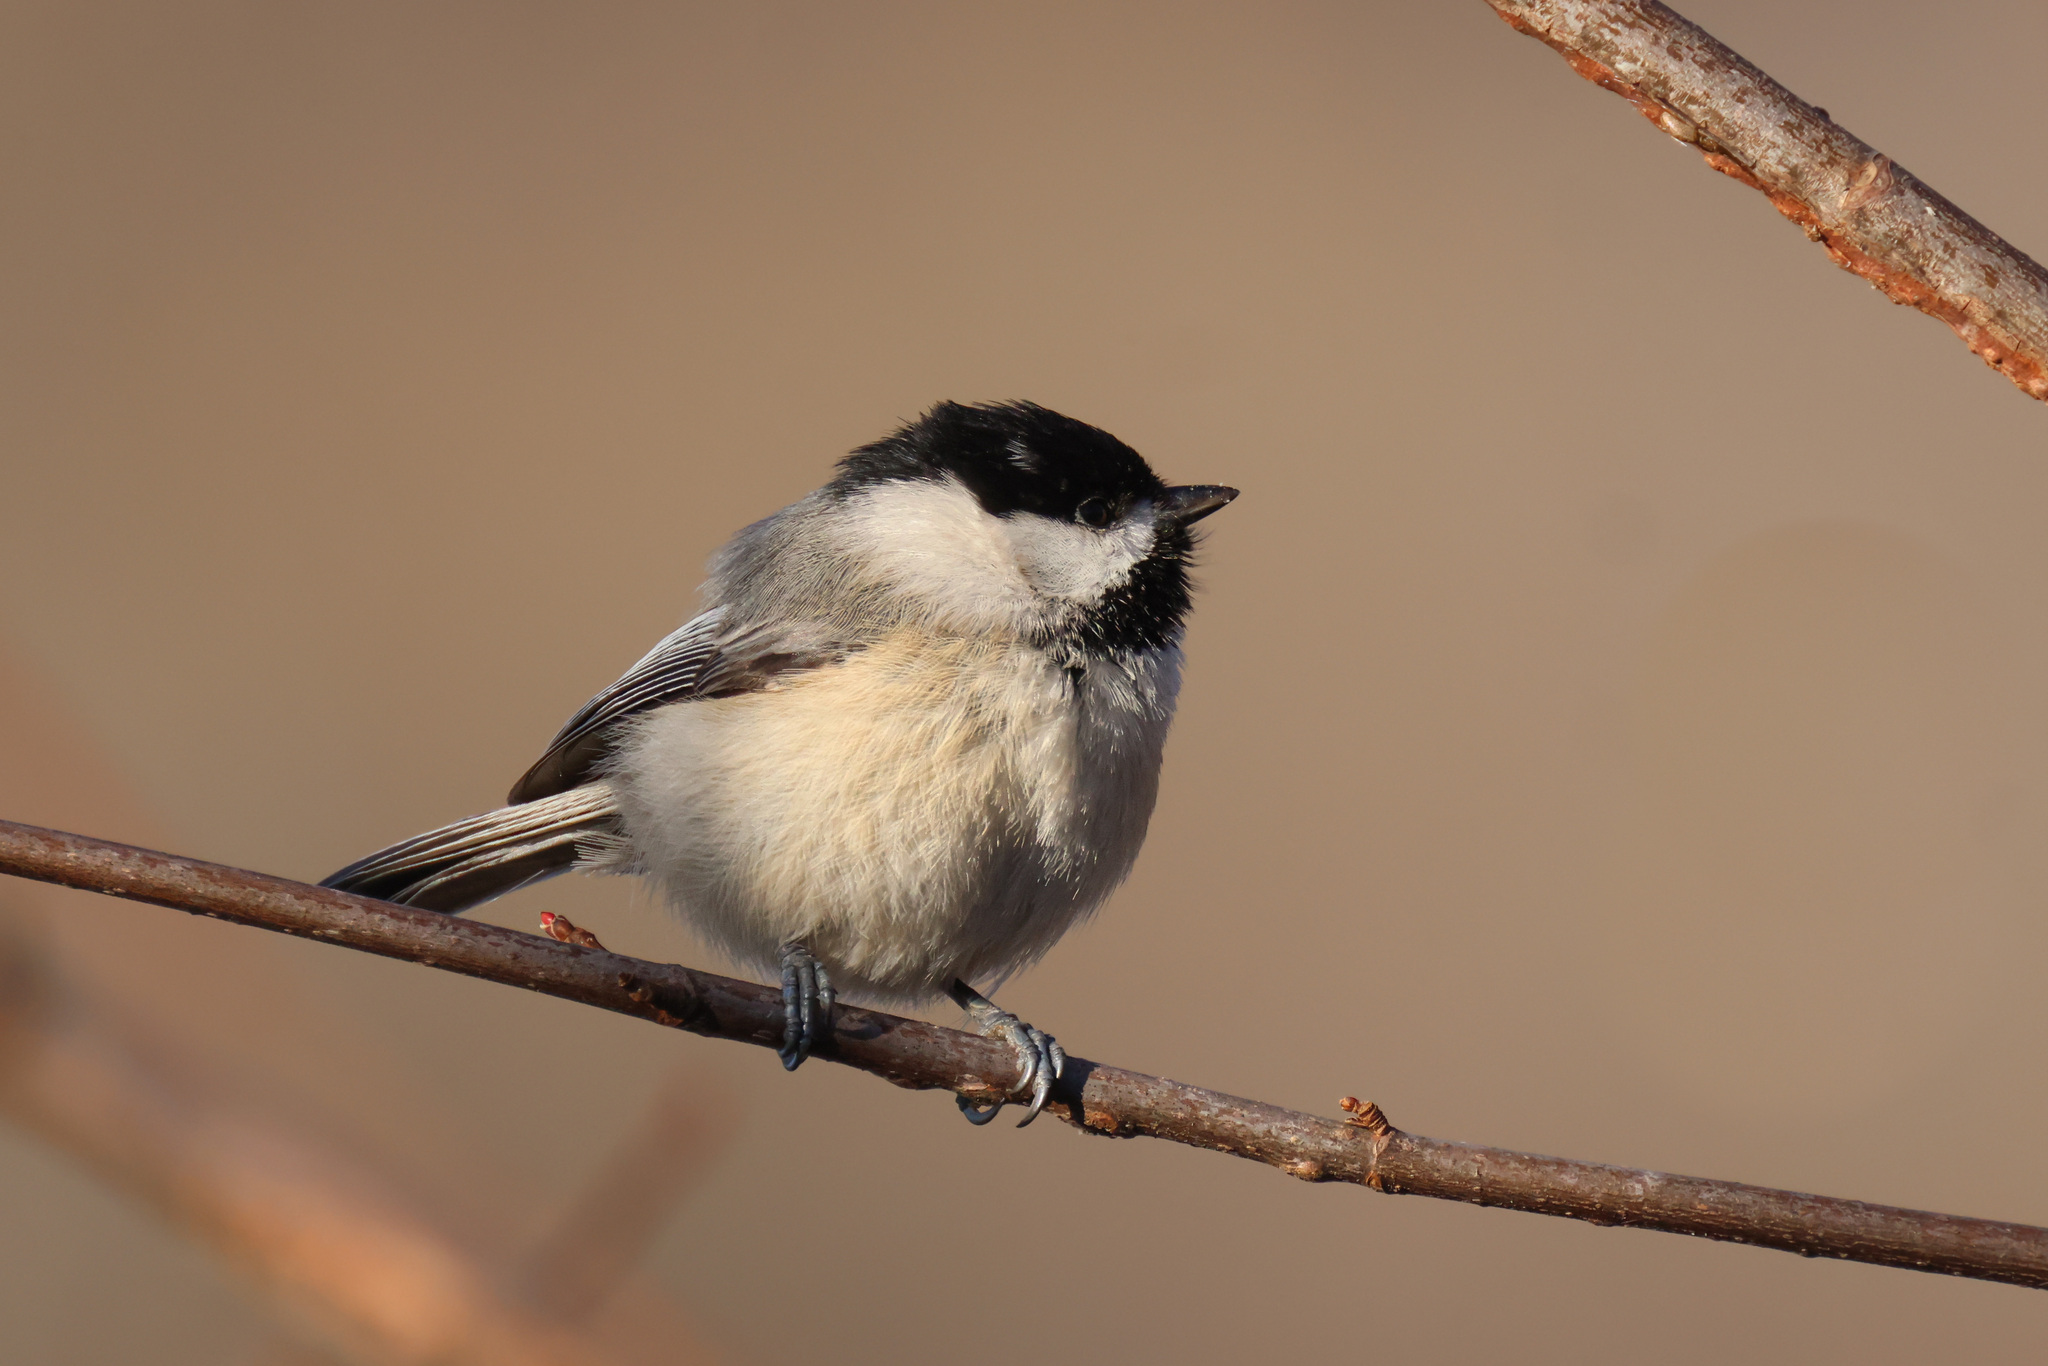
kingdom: Animalia
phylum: Chordata
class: Aves
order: Passeriformes
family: Paridae
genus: Poecile
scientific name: Poecile carolinensis
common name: Carolina chickadee
